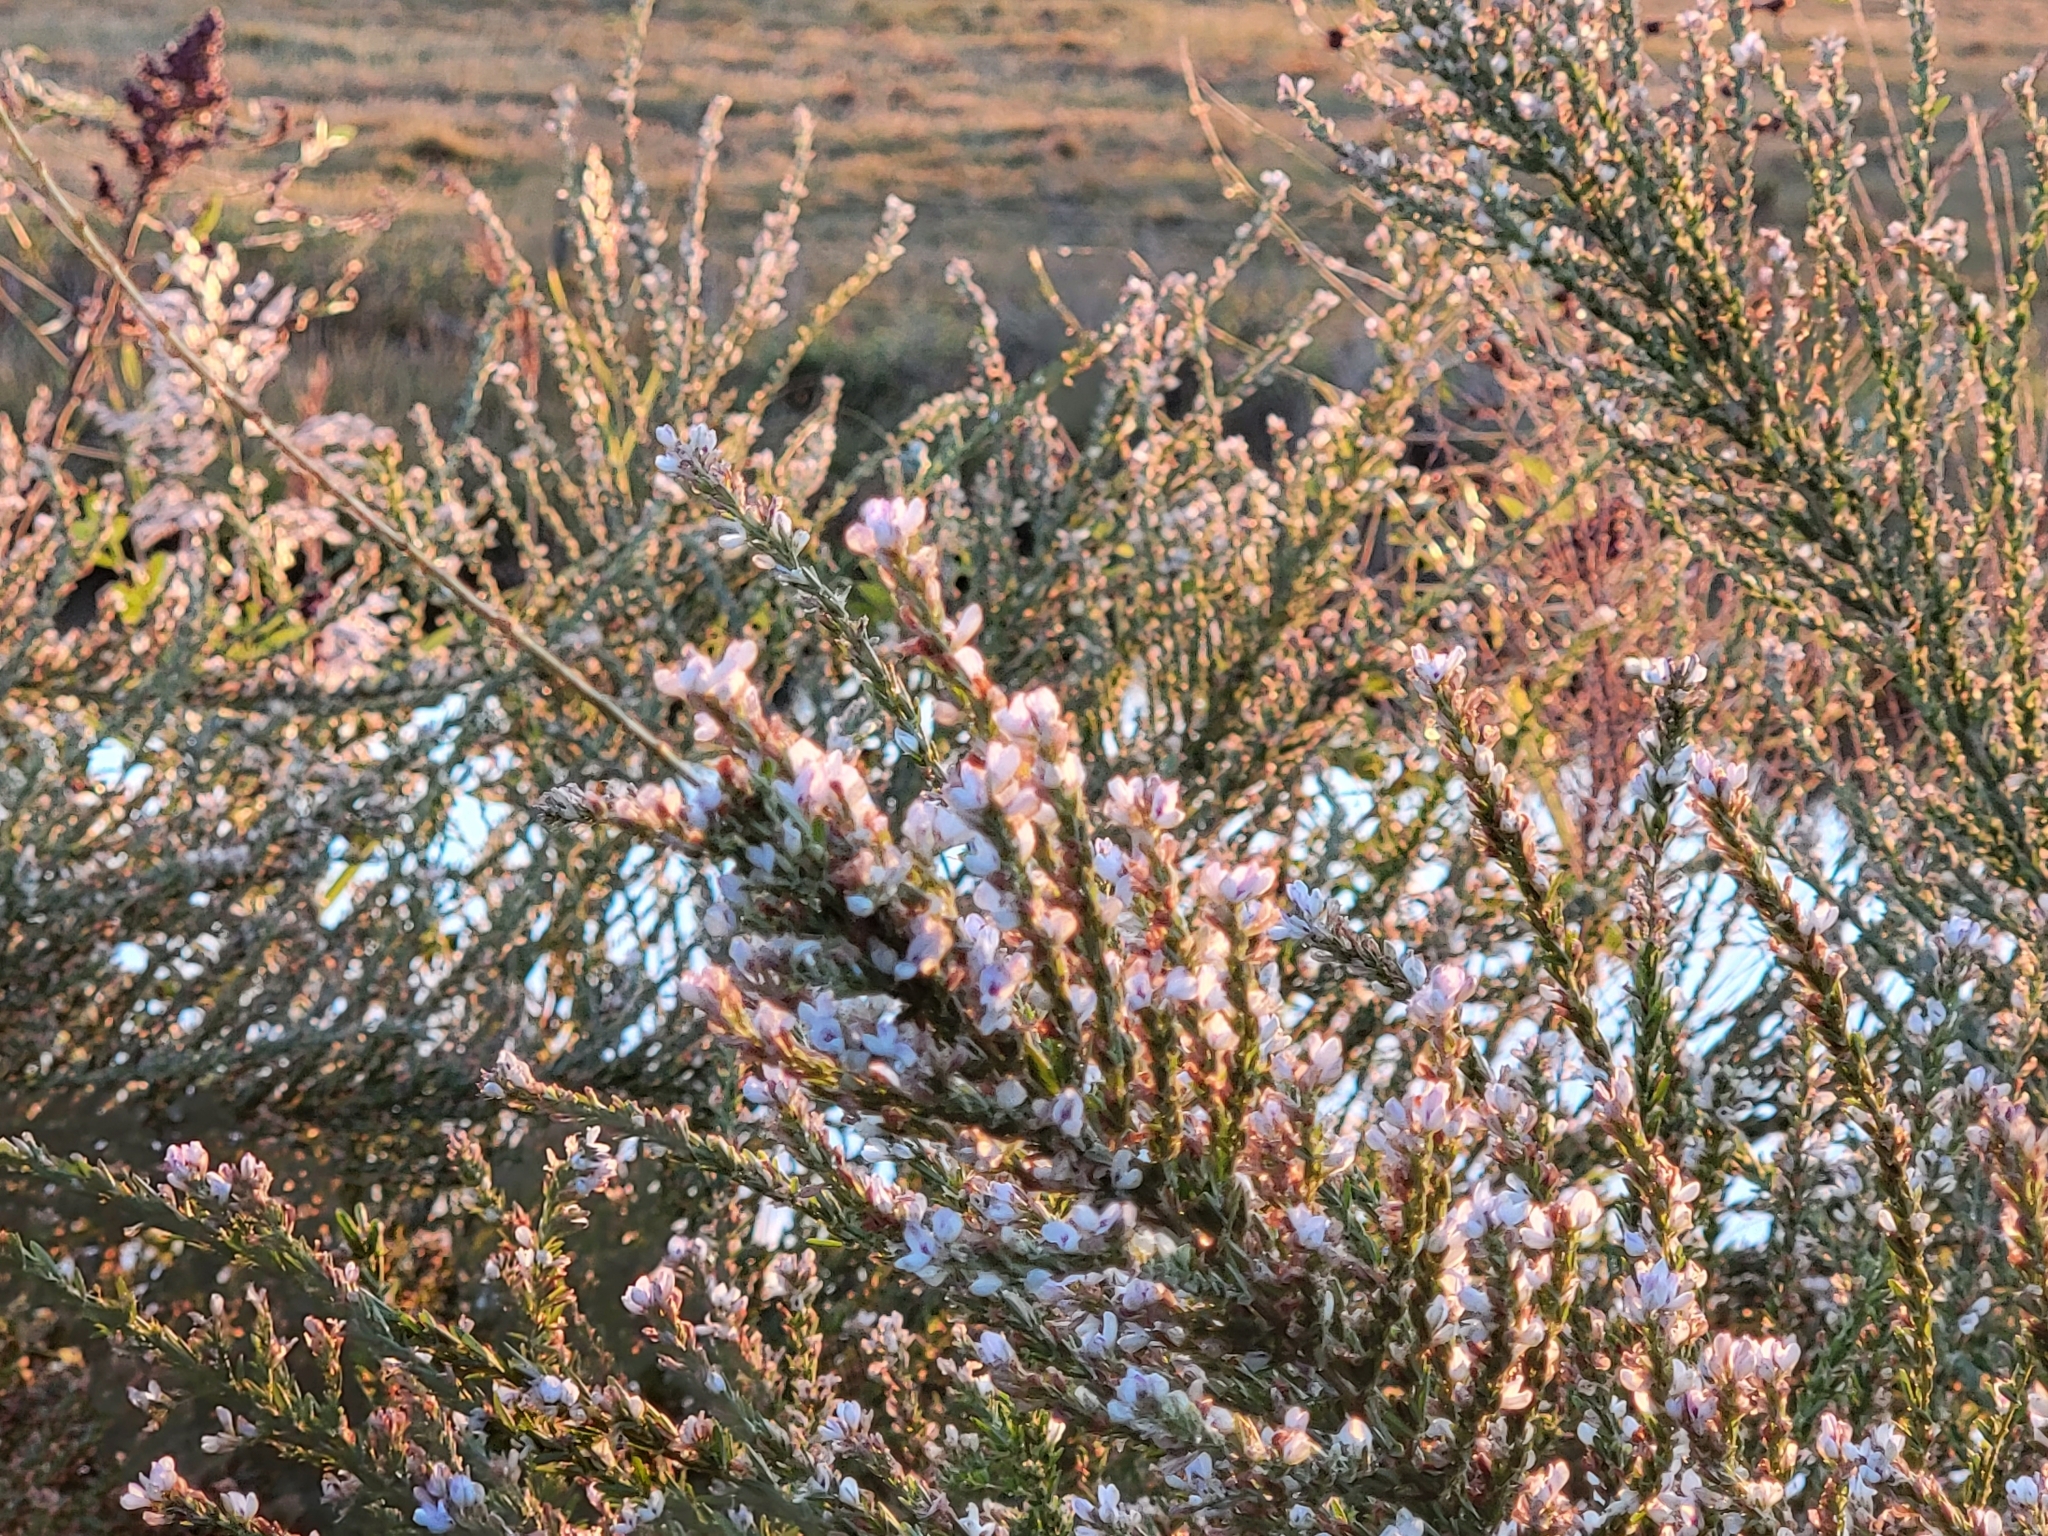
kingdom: Plantae
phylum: Tracheophyta
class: Magnoliopsida
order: Fabales
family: Fabaceae
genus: Lespedeza
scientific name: Lespedeza cuneata
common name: Chinese bush-clover
